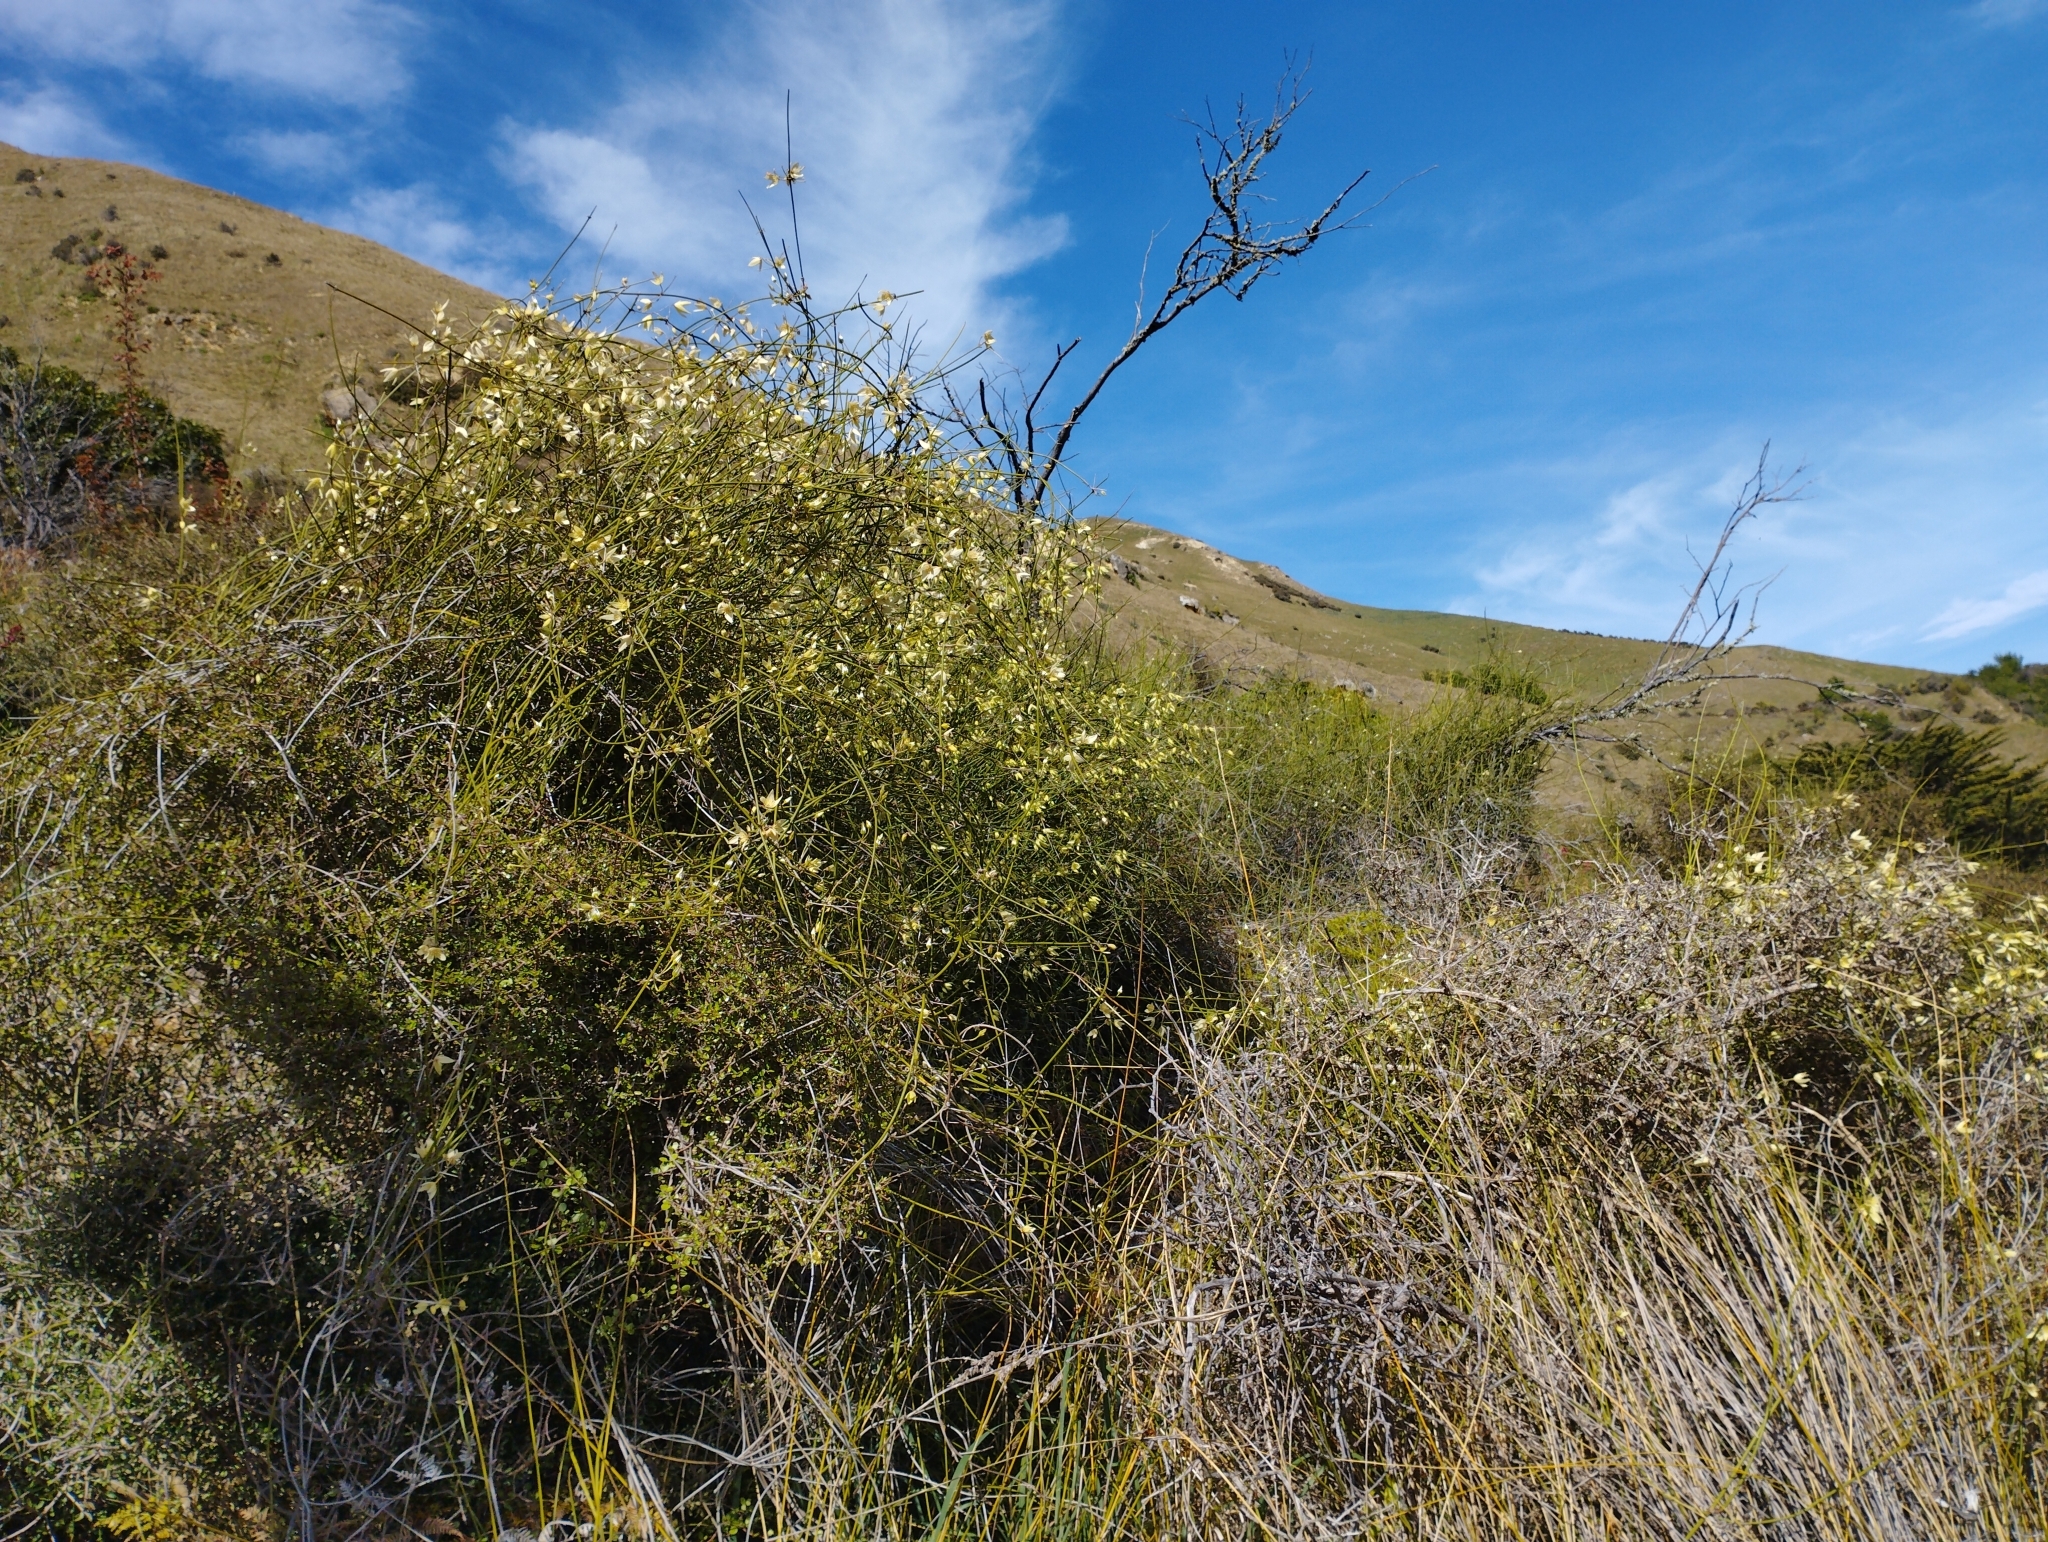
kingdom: Plantae
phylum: Tracheophyta
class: Magnoliopsida
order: Ranunculales
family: Ranunculaceae
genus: Clematis
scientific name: Clematis afoliata
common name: Rush-stem clematis
